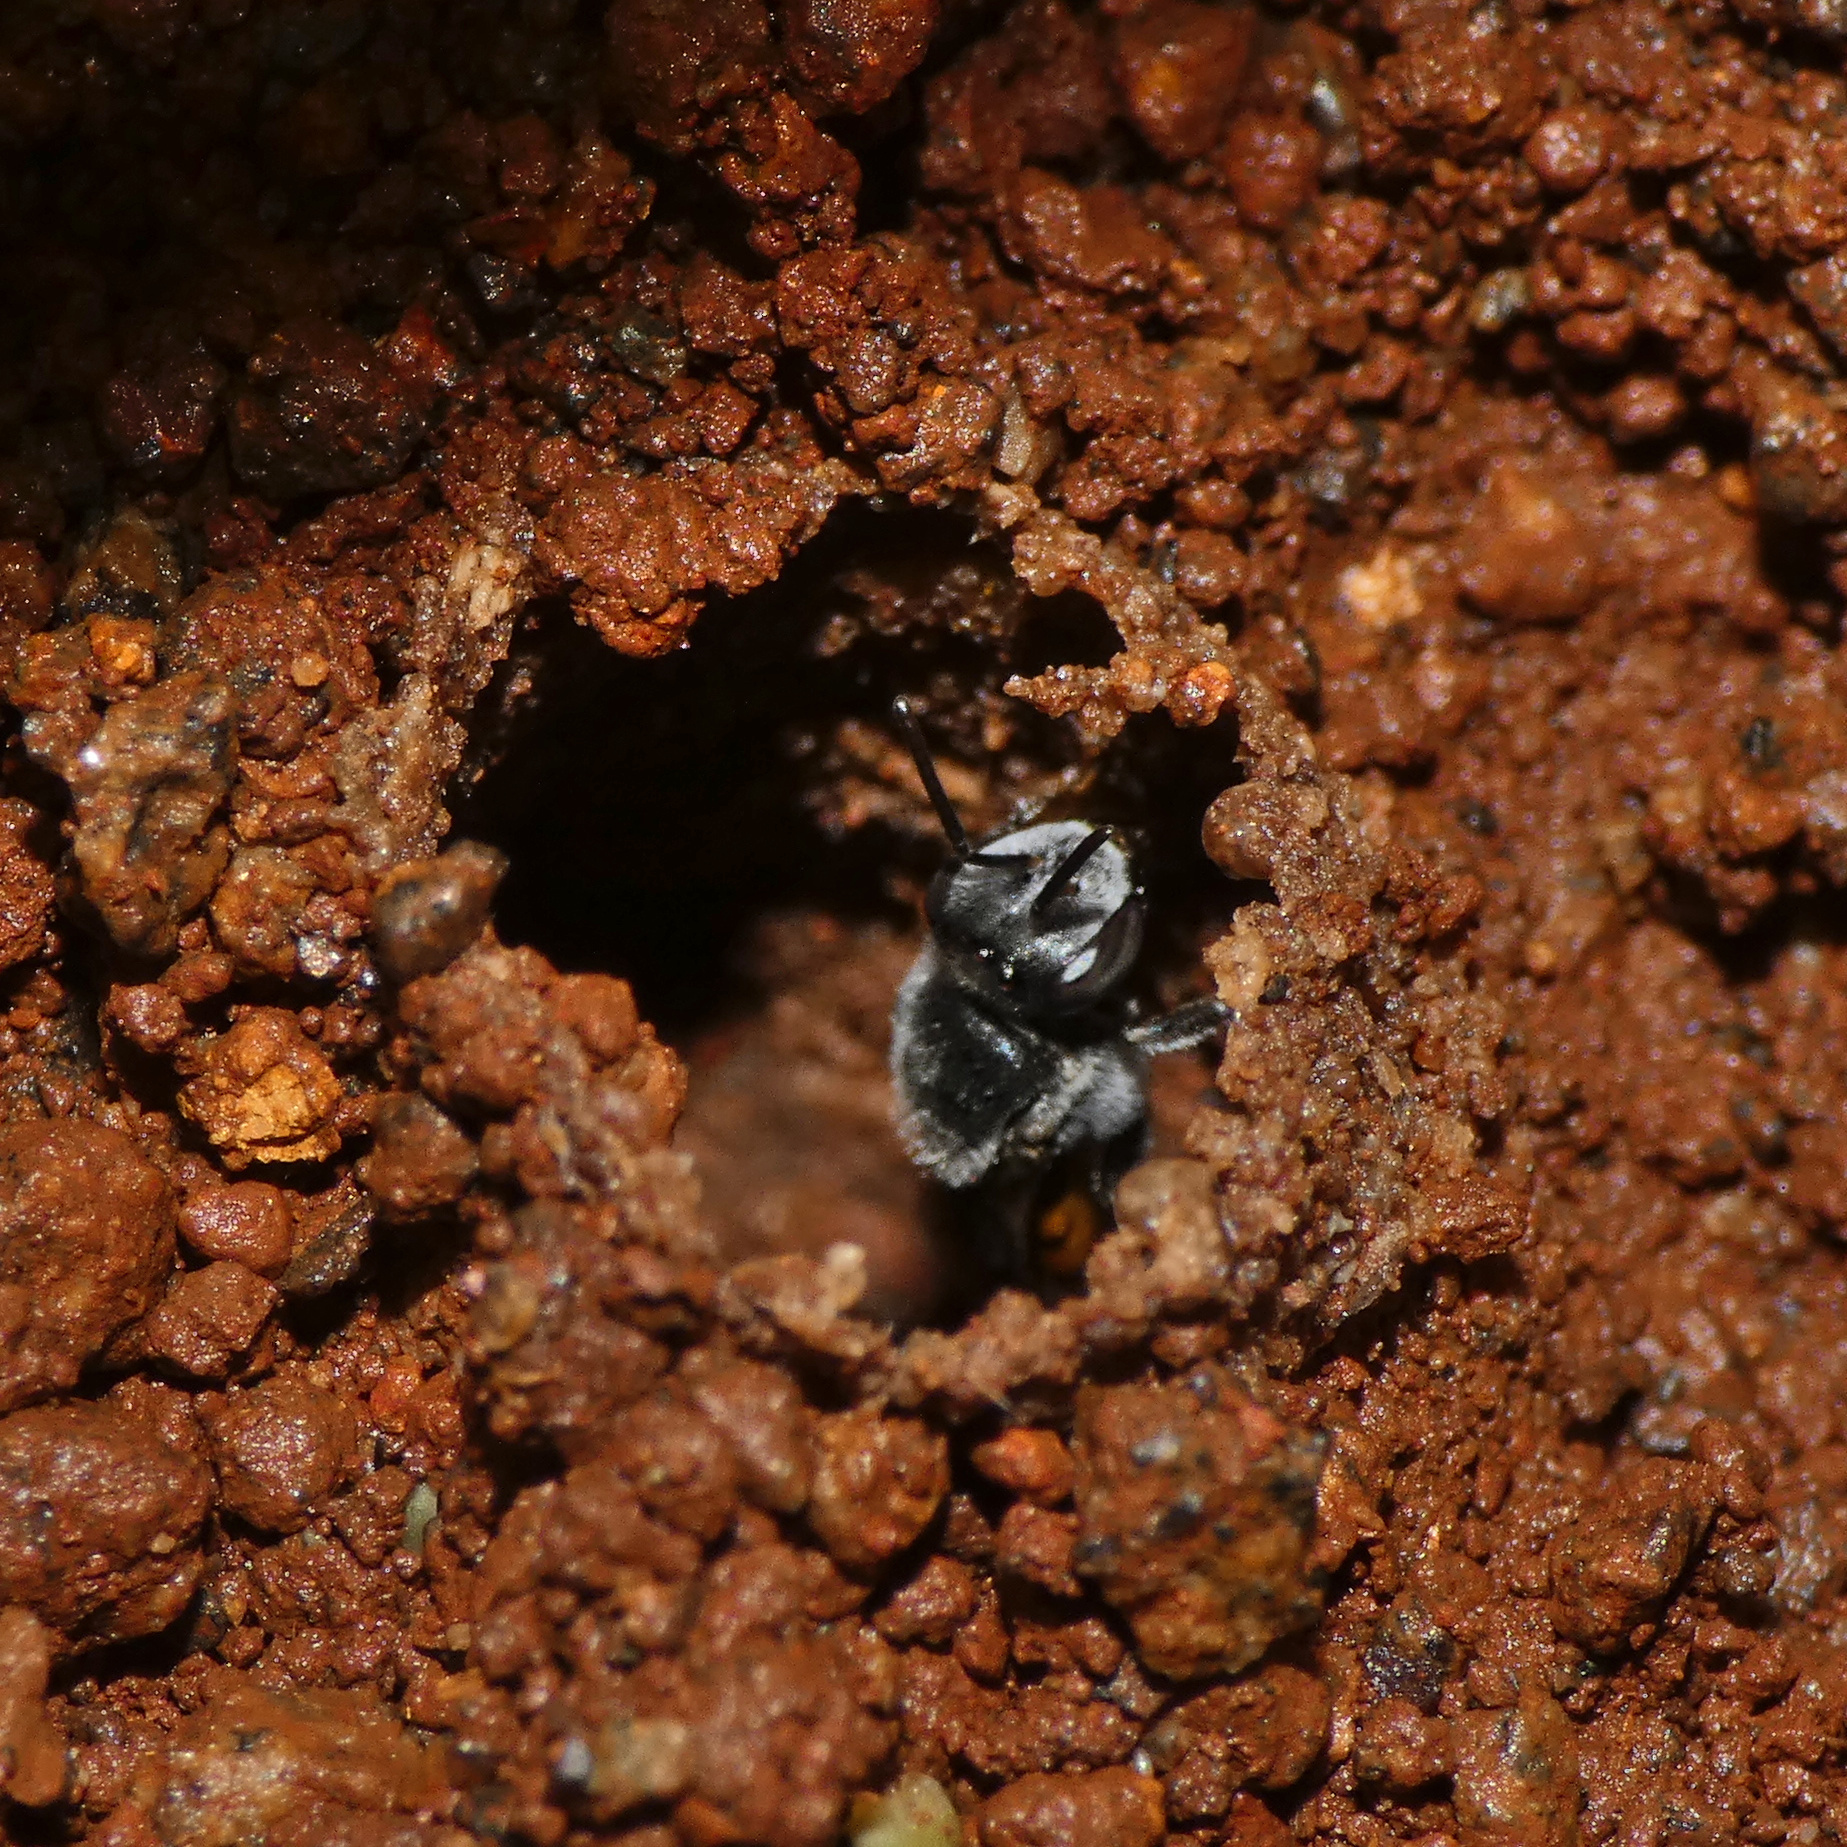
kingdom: Animalia
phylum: Arthropoda
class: Insecta
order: Hymenoptera
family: Apidae
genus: Plebeina
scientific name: Plebeina armata
